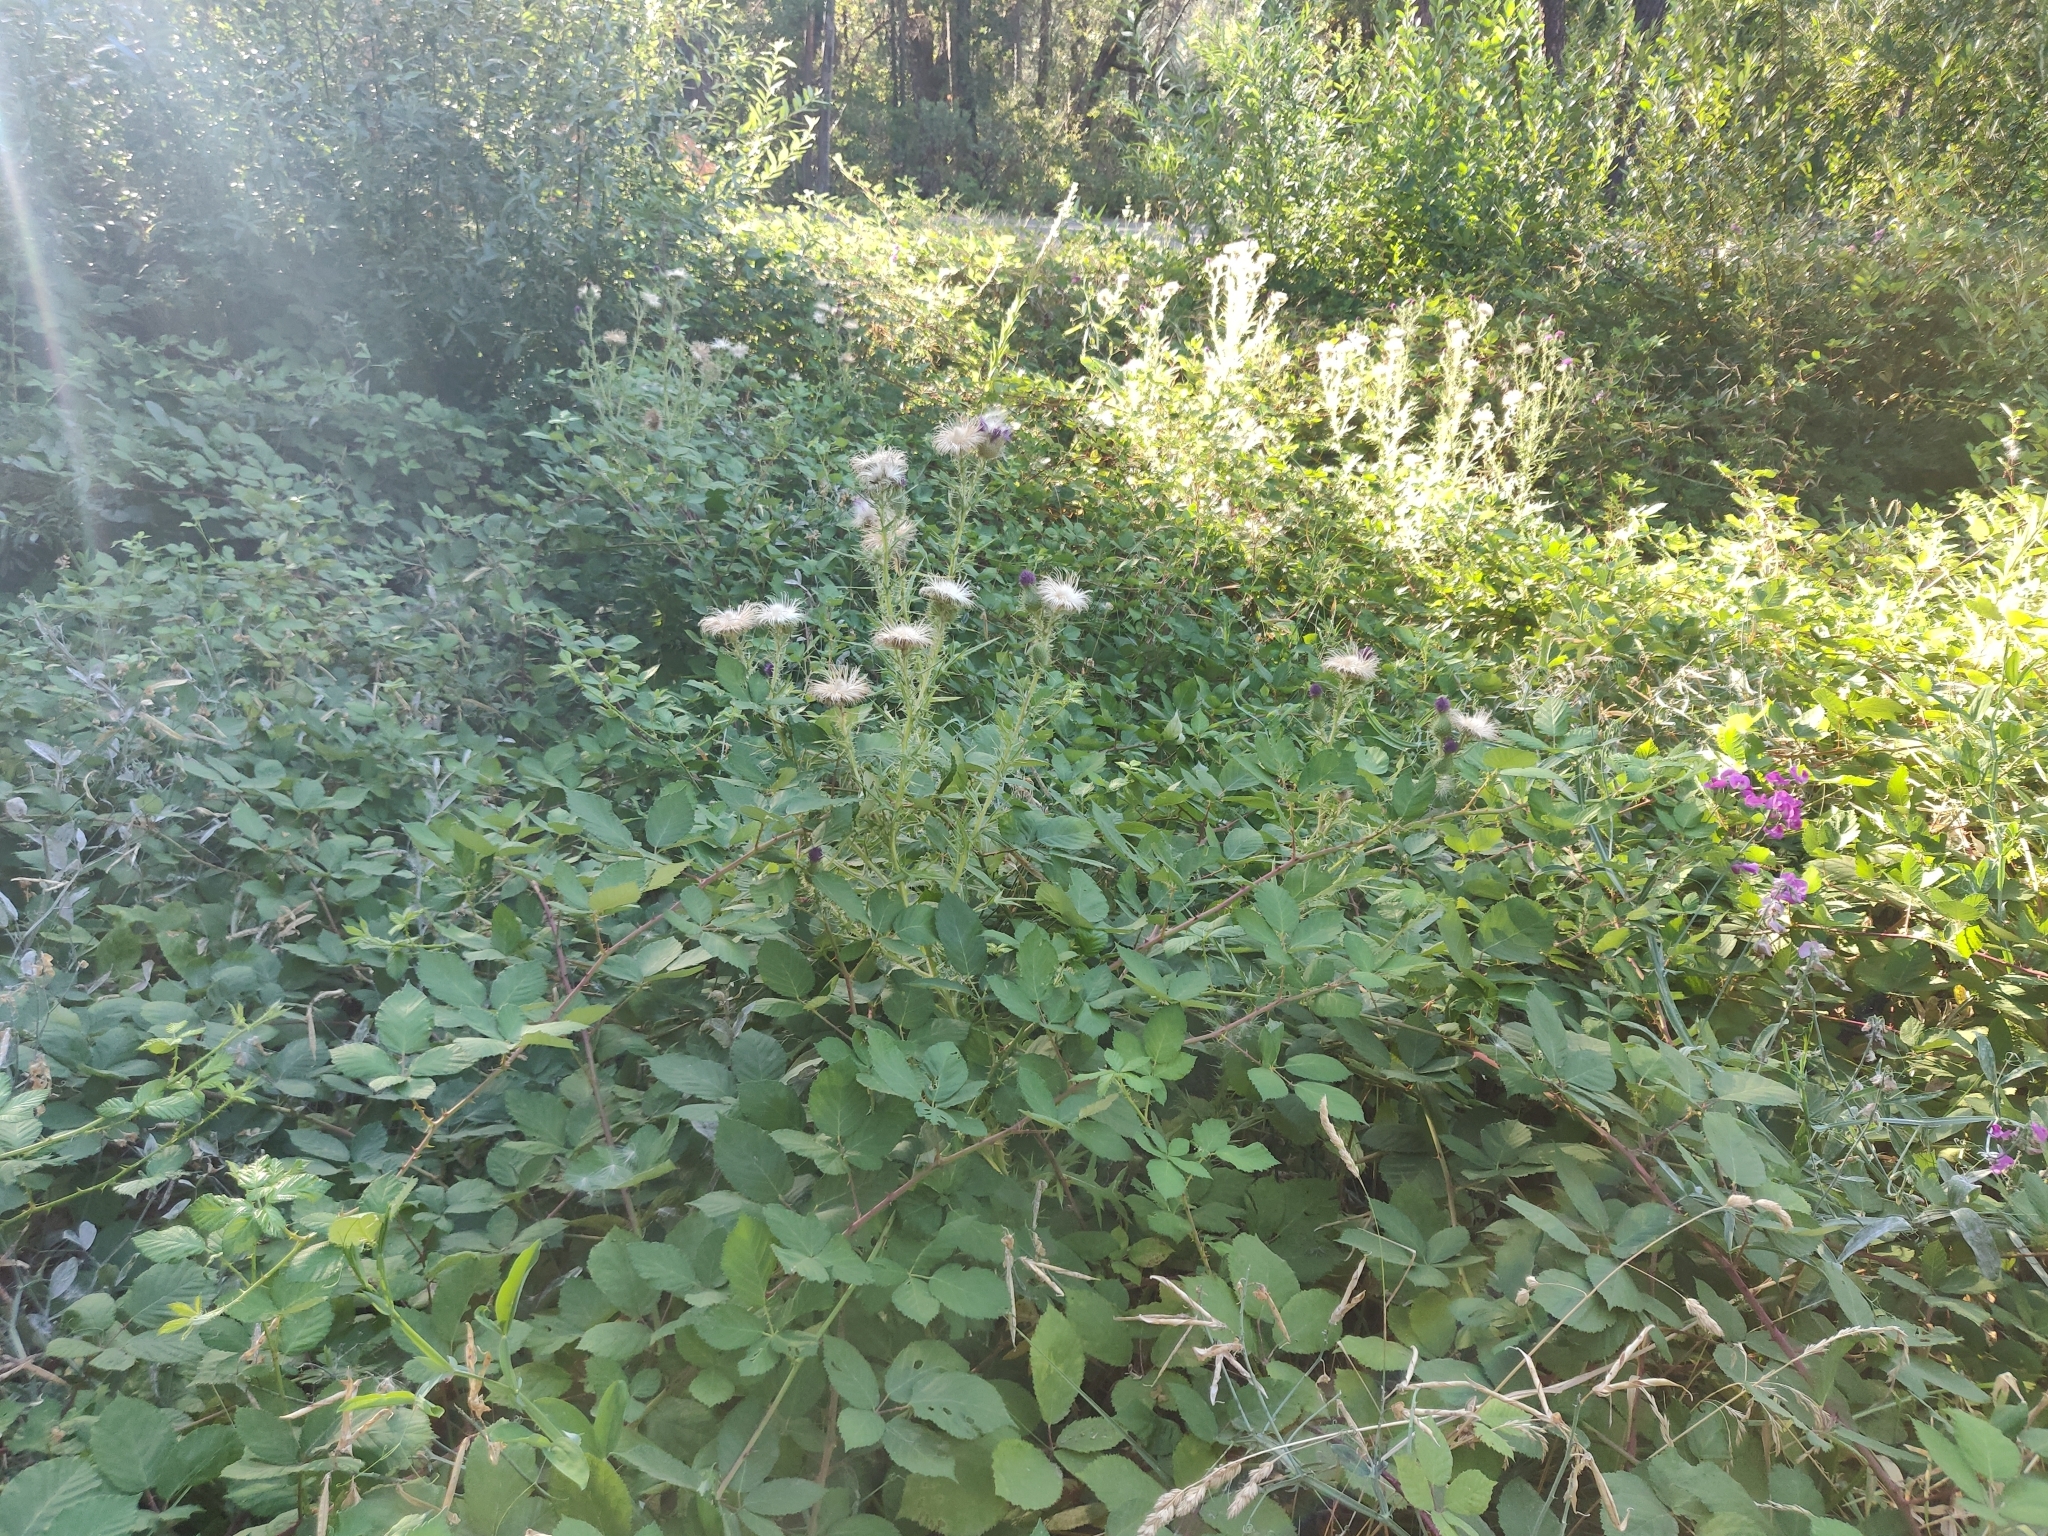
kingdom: Plantae
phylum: Tracheophyta
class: Magnoliopsida
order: Asterales
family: Asteraceae
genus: Cirsium
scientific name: Cirsium vulgare
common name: Bull thistle
